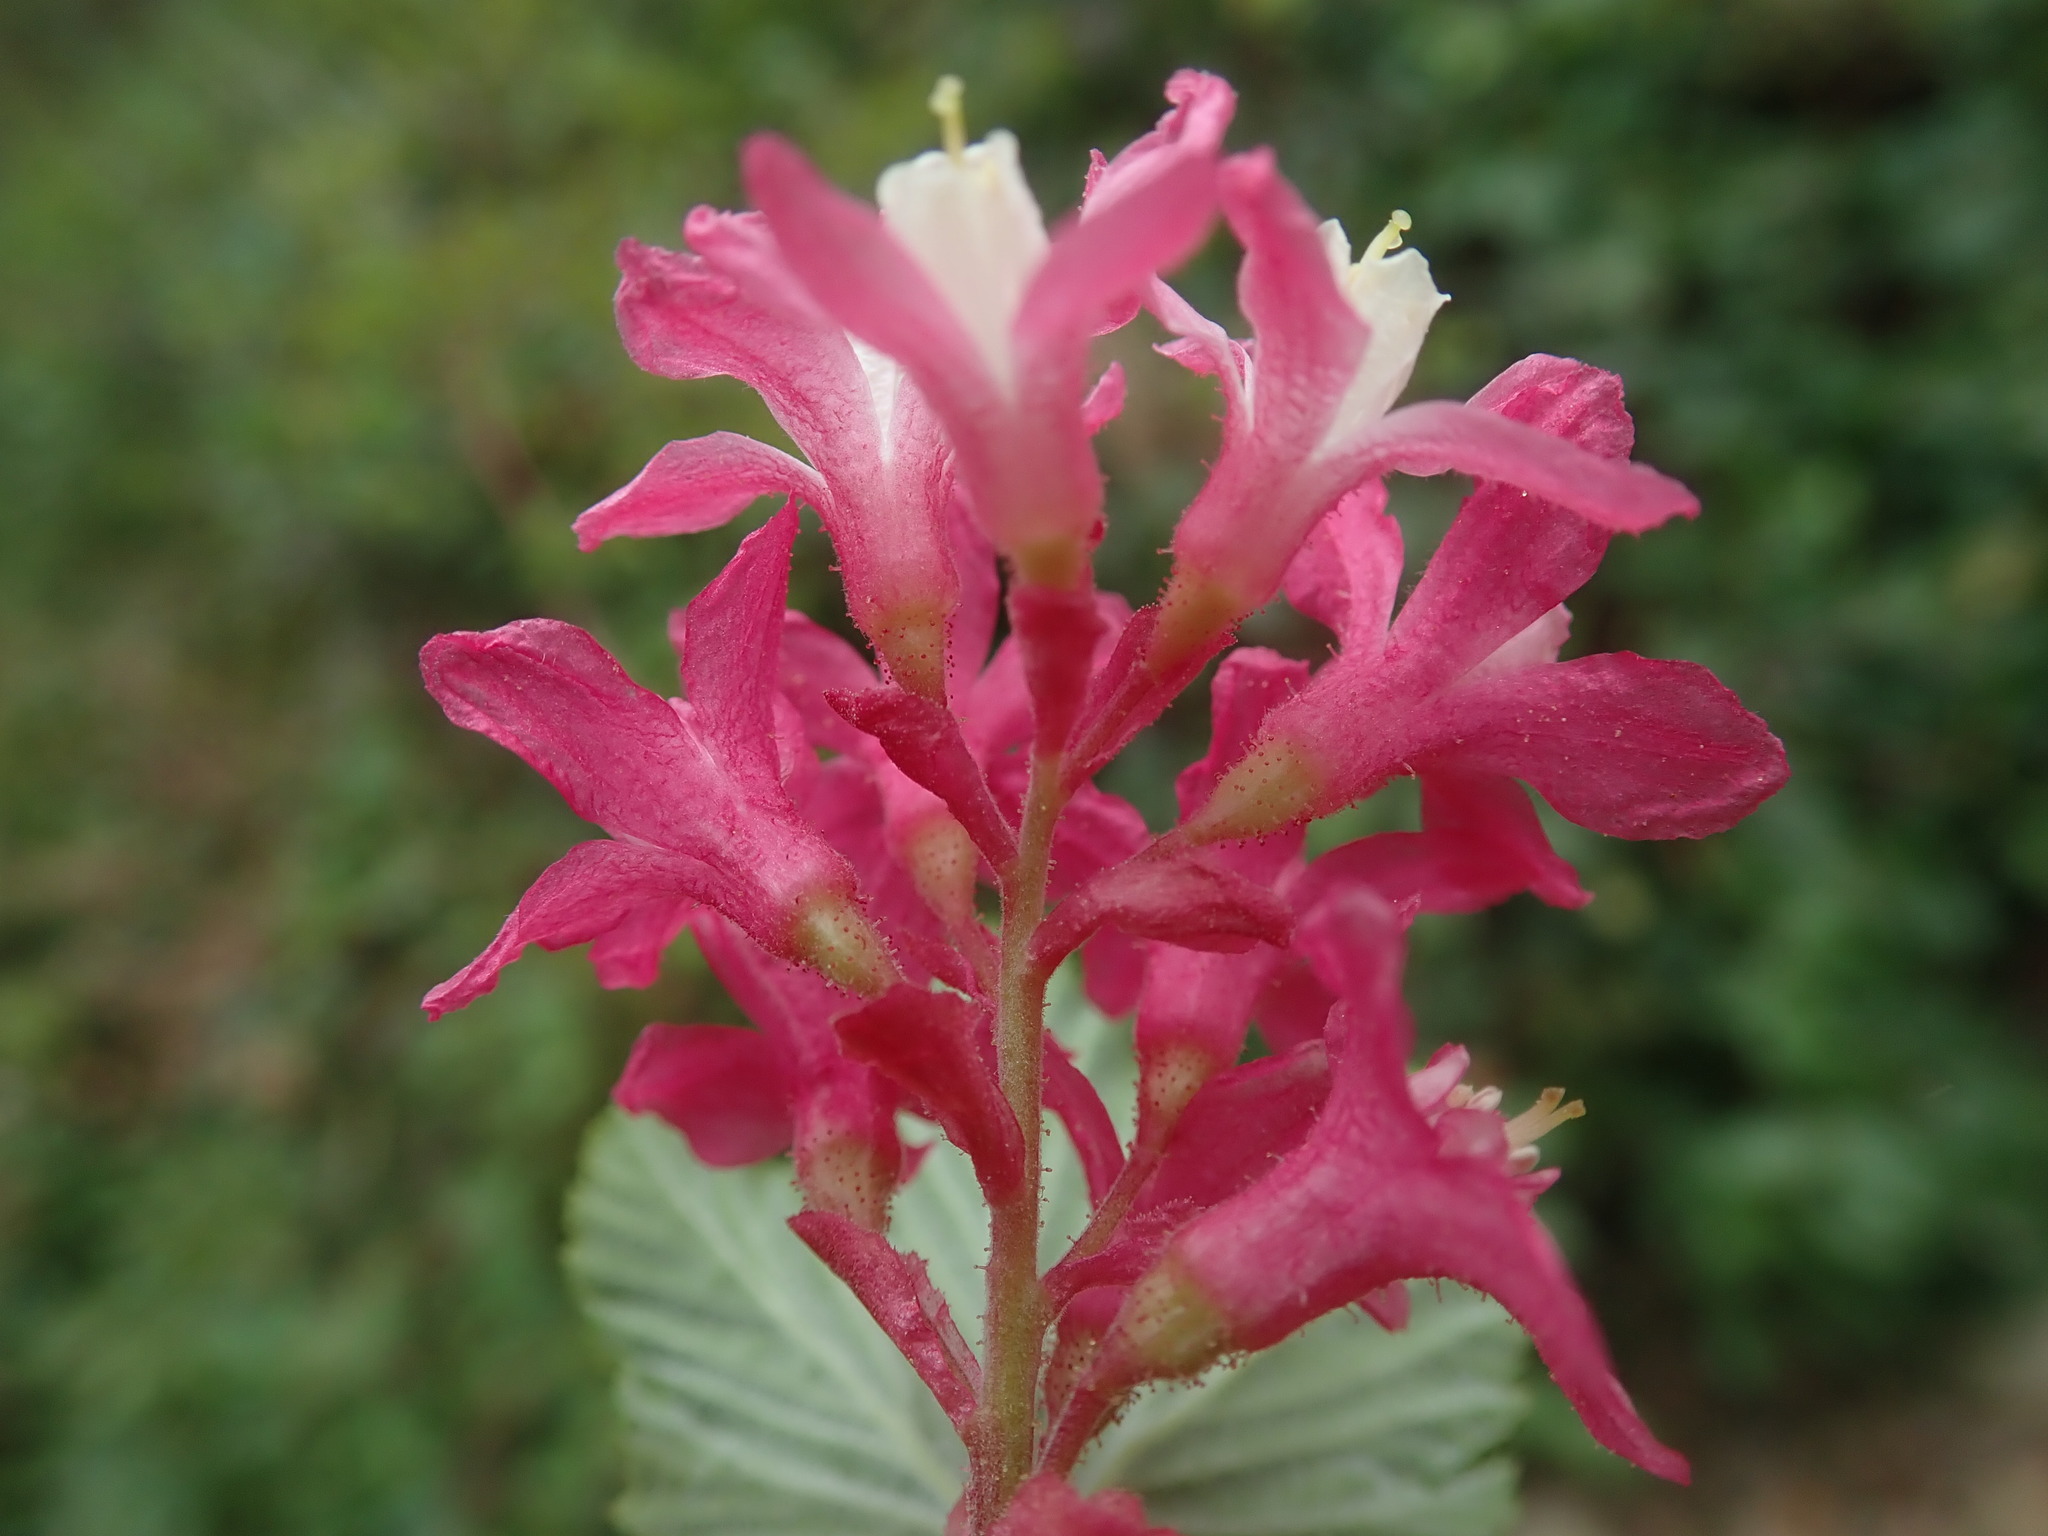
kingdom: Plantae
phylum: Tracheophyta
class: Magnoliopsida
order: Saxifragales
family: Grossulariaceae
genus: Ribes
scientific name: Ribes sanguineum
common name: Flowering currant
